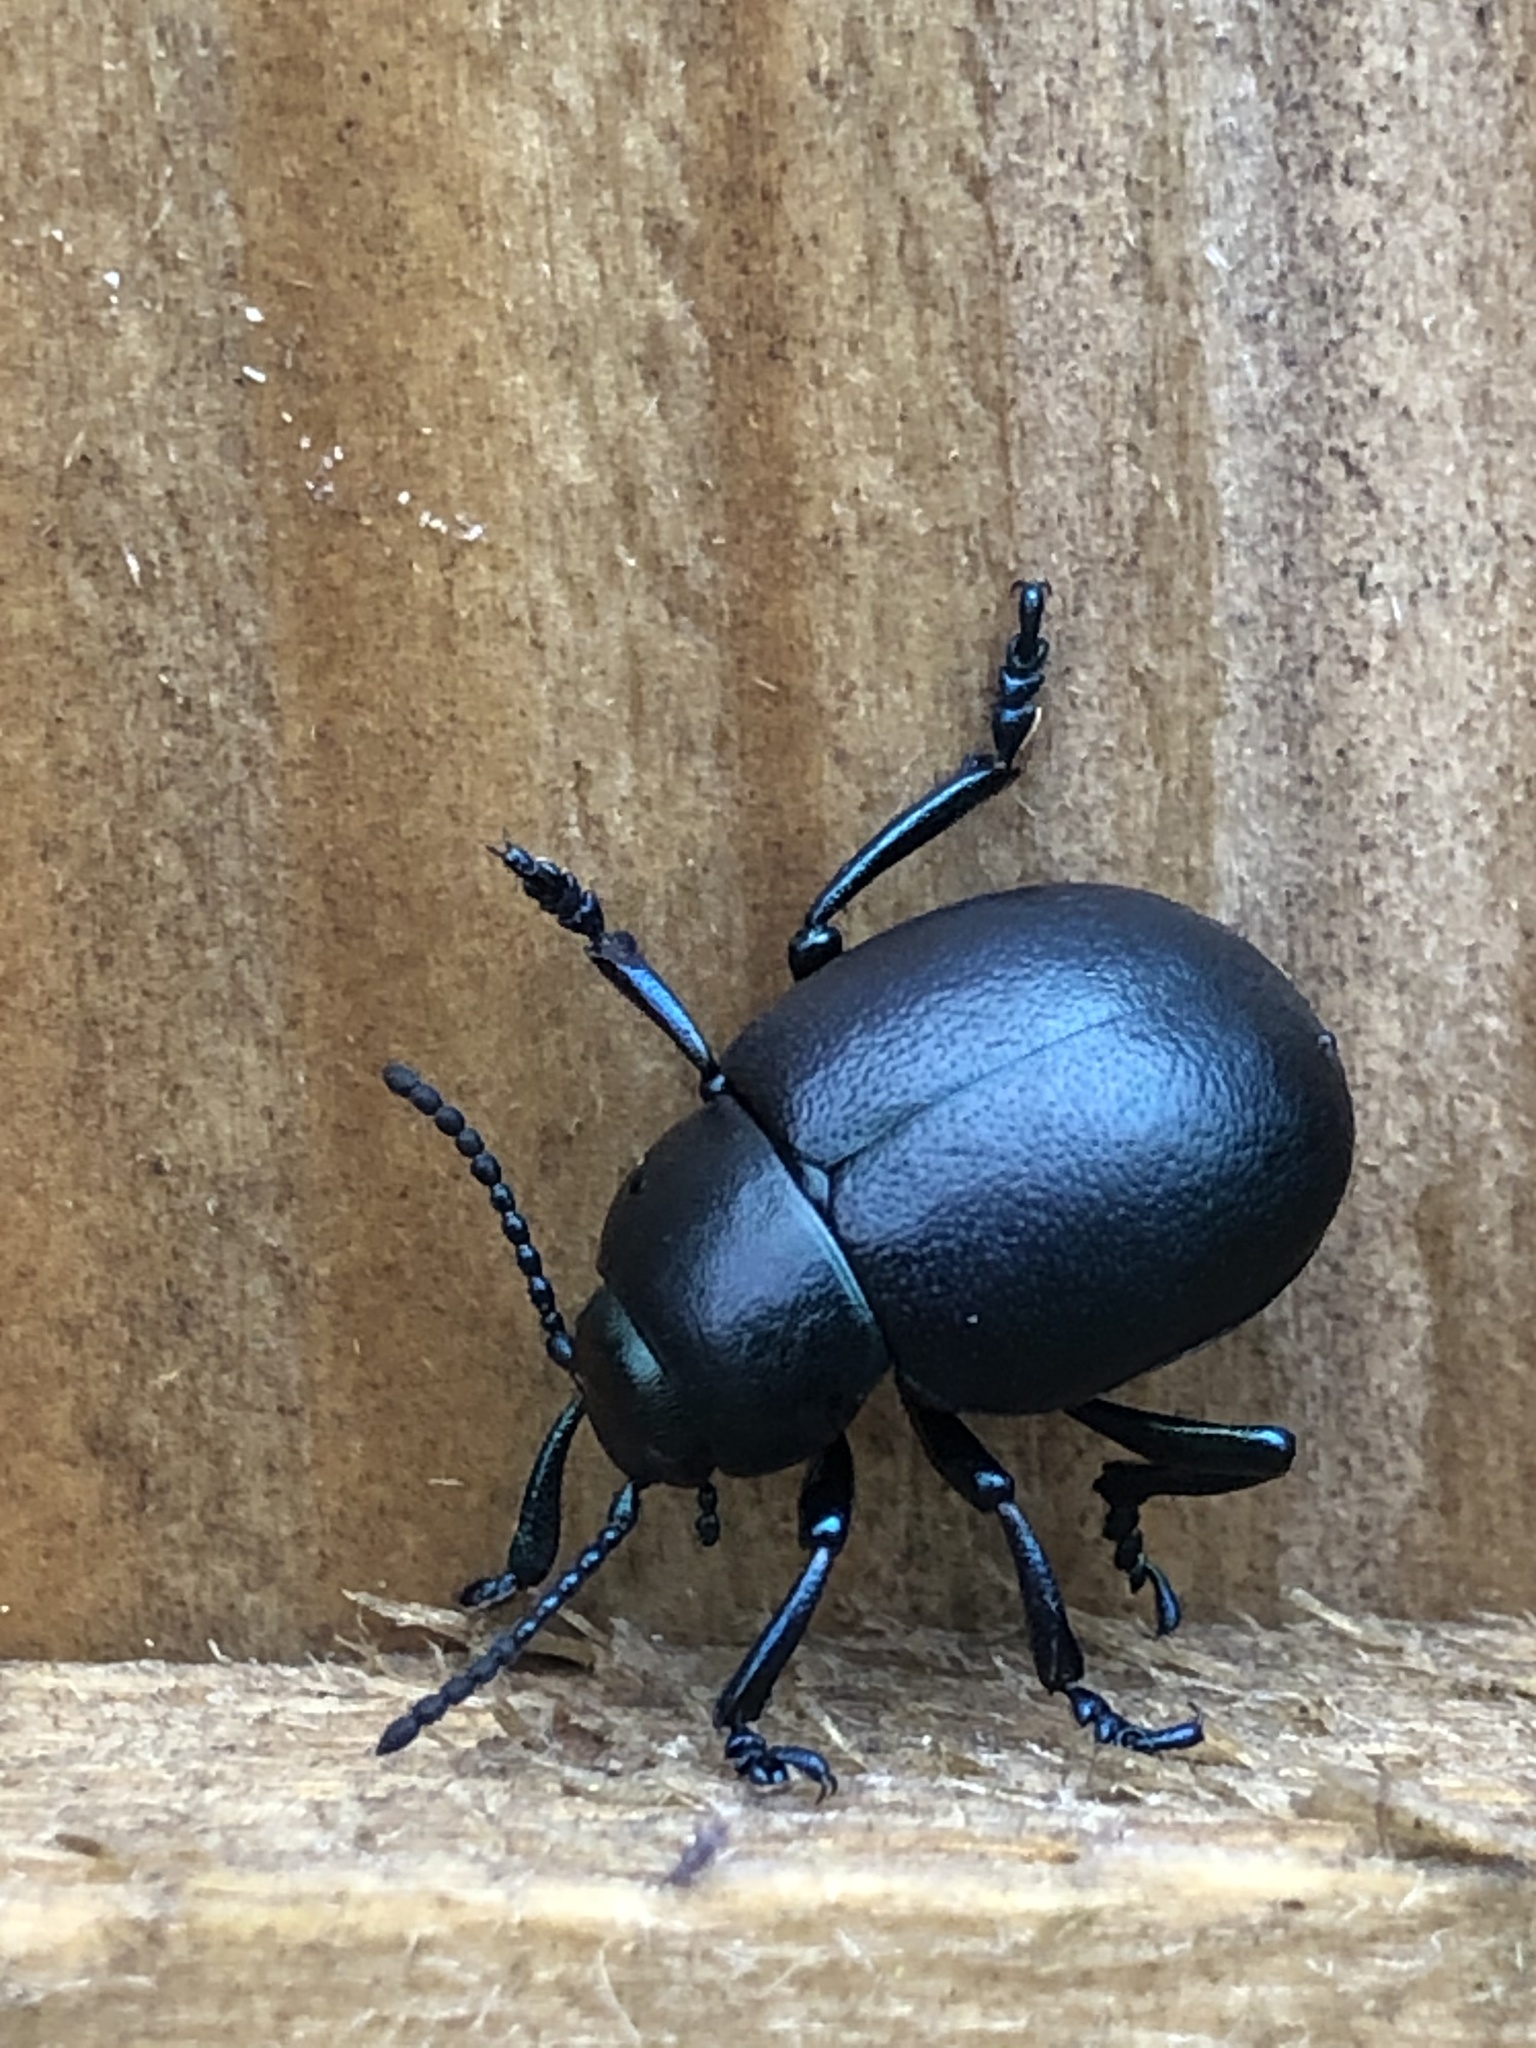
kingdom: Animalia
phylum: Arthropoda
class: Insecta
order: Coleoptera
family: Chrysomelidae
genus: Timarcha
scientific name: Timarcha goettingensis
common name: Small bloody-nosed beetle
